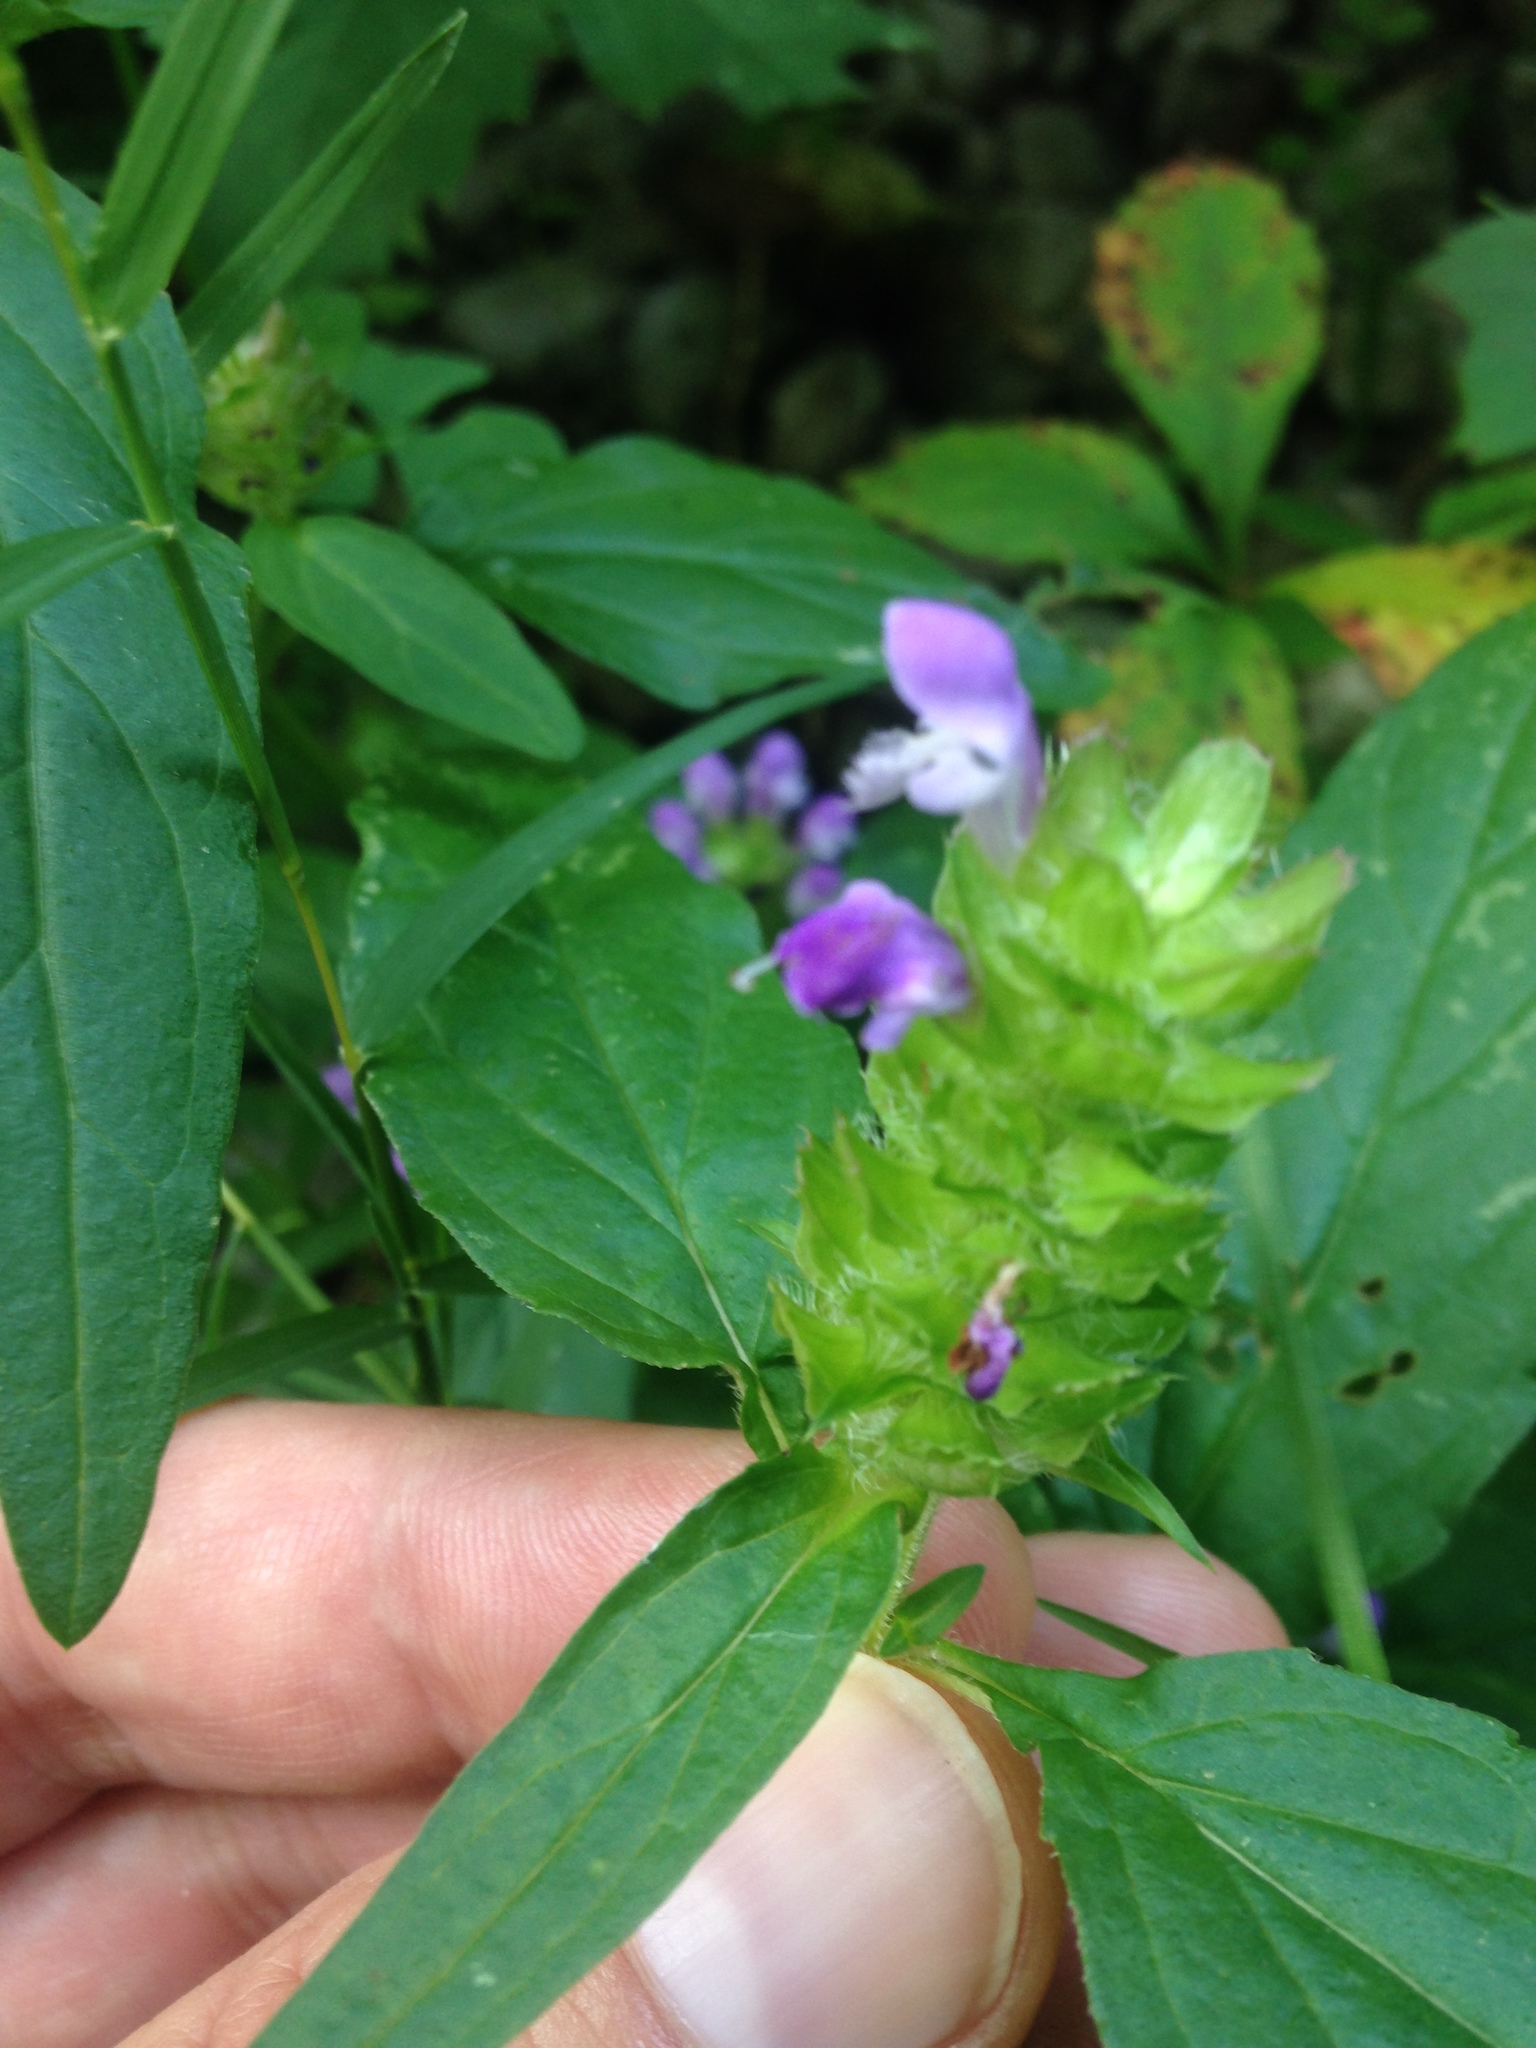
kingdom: Plantae
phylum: Tracheophyta
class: Magnoliopsida
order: Lamiales
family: Lamiaceae
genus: Prunella
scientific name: Prunella vulgaris
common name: Heal-all
